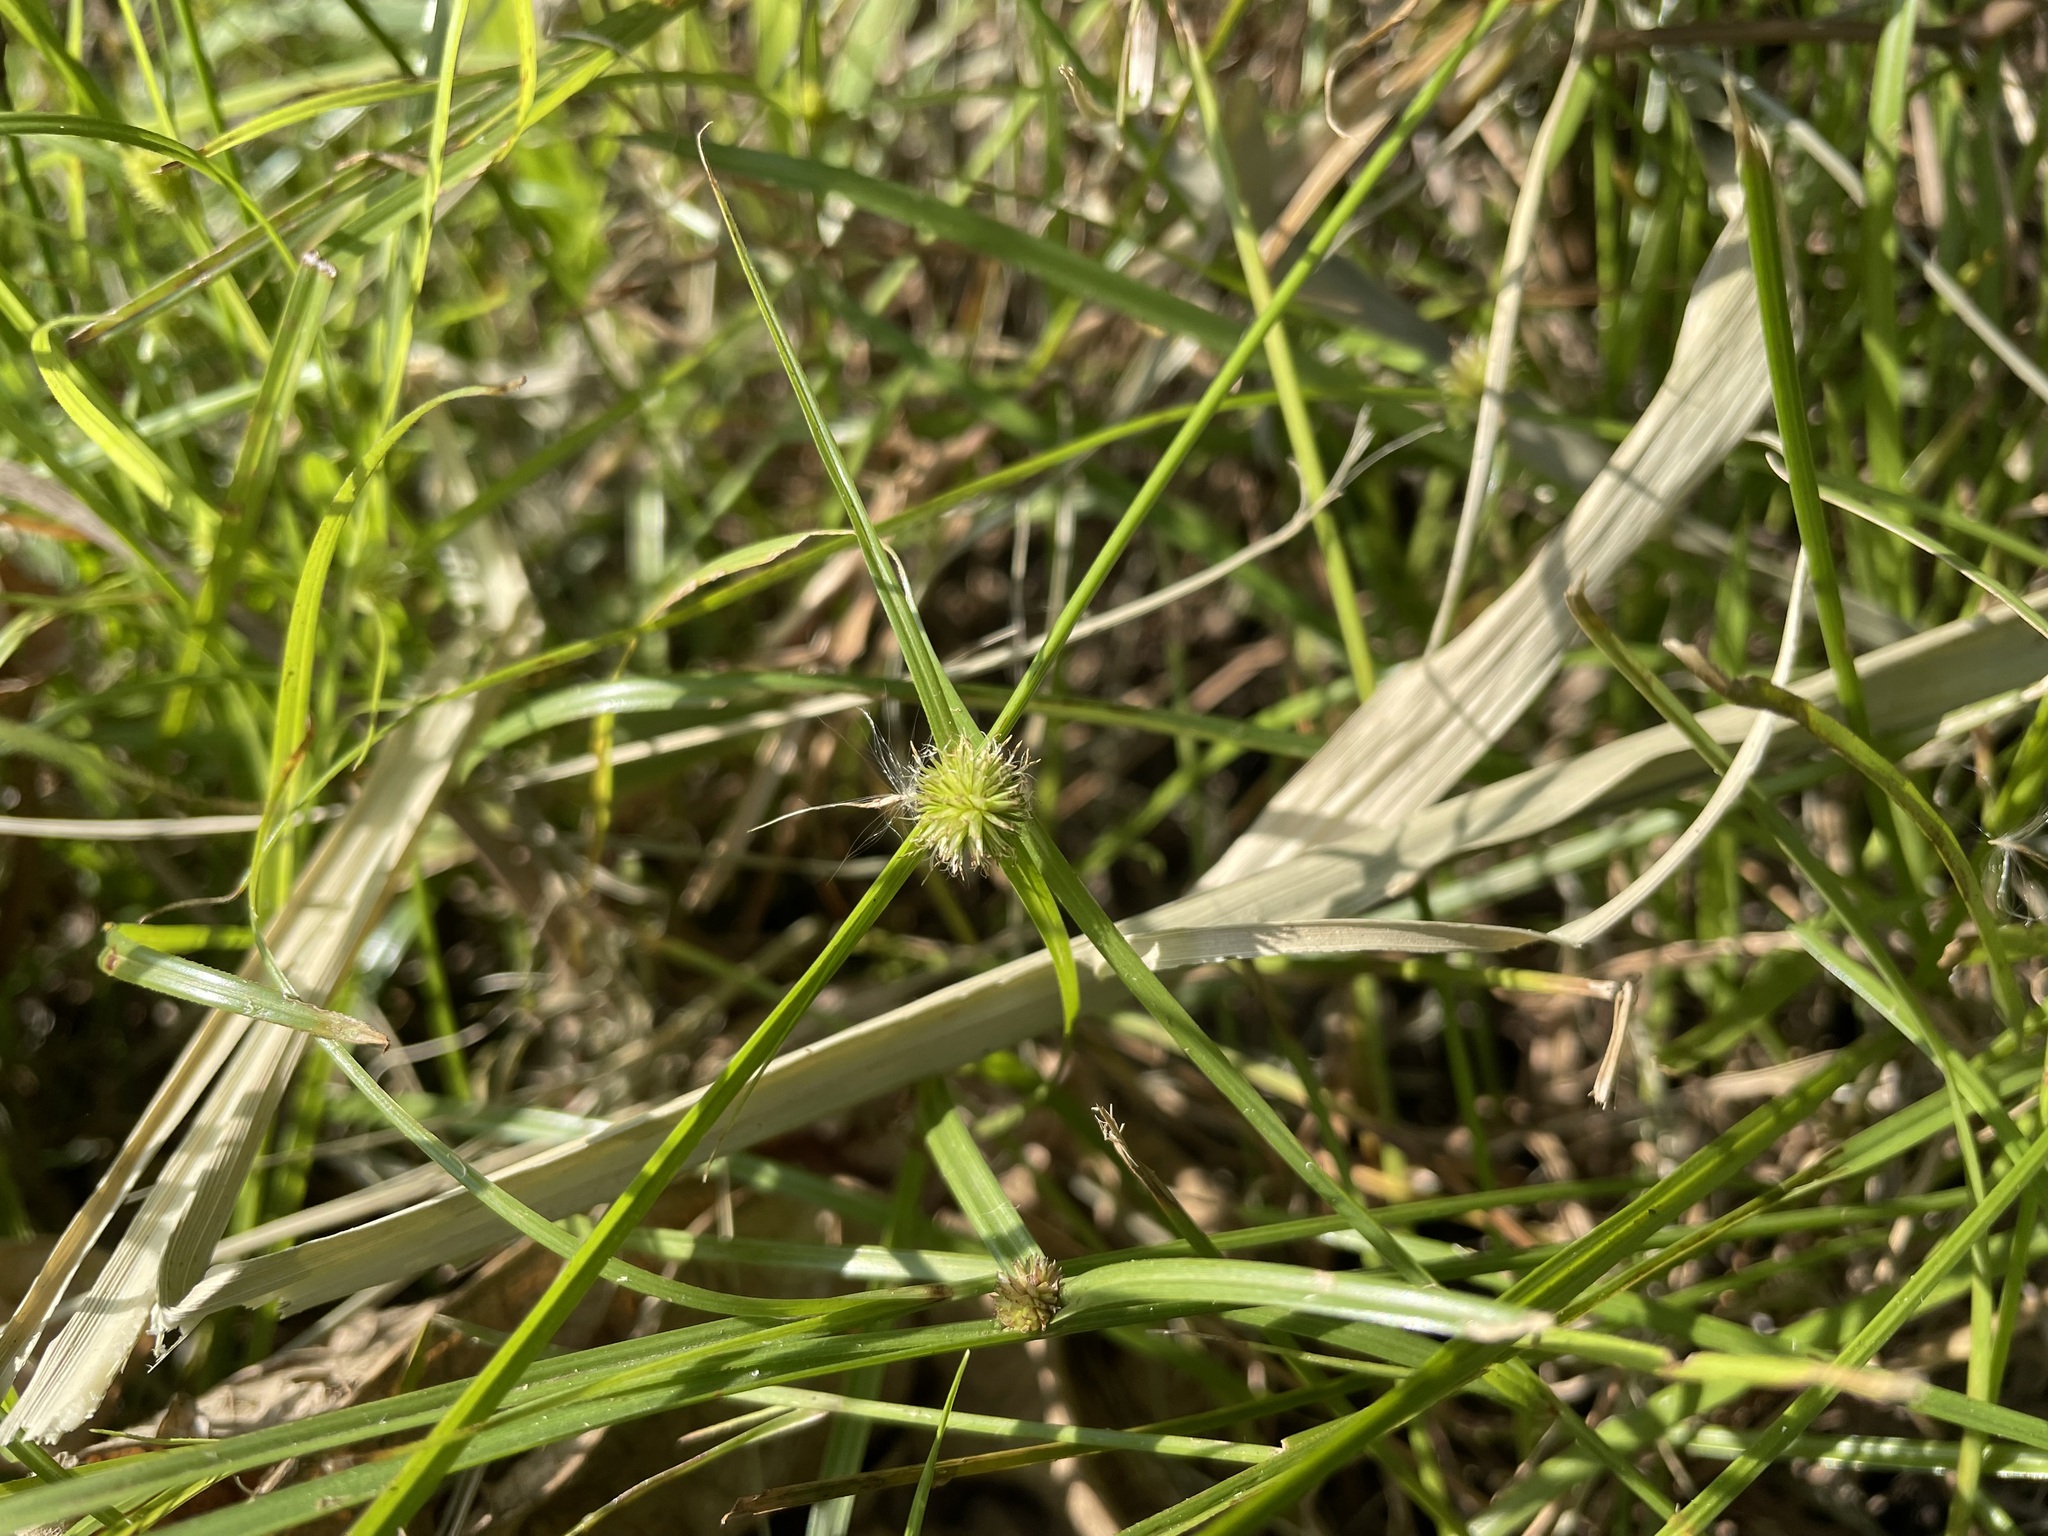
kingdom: Plantae
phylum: Tracheophyta
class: Liliopsida
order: Poales
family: Cyperaceae
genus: Cyperus
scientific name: Cyperus brevifolius
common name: Globe kyllinga
